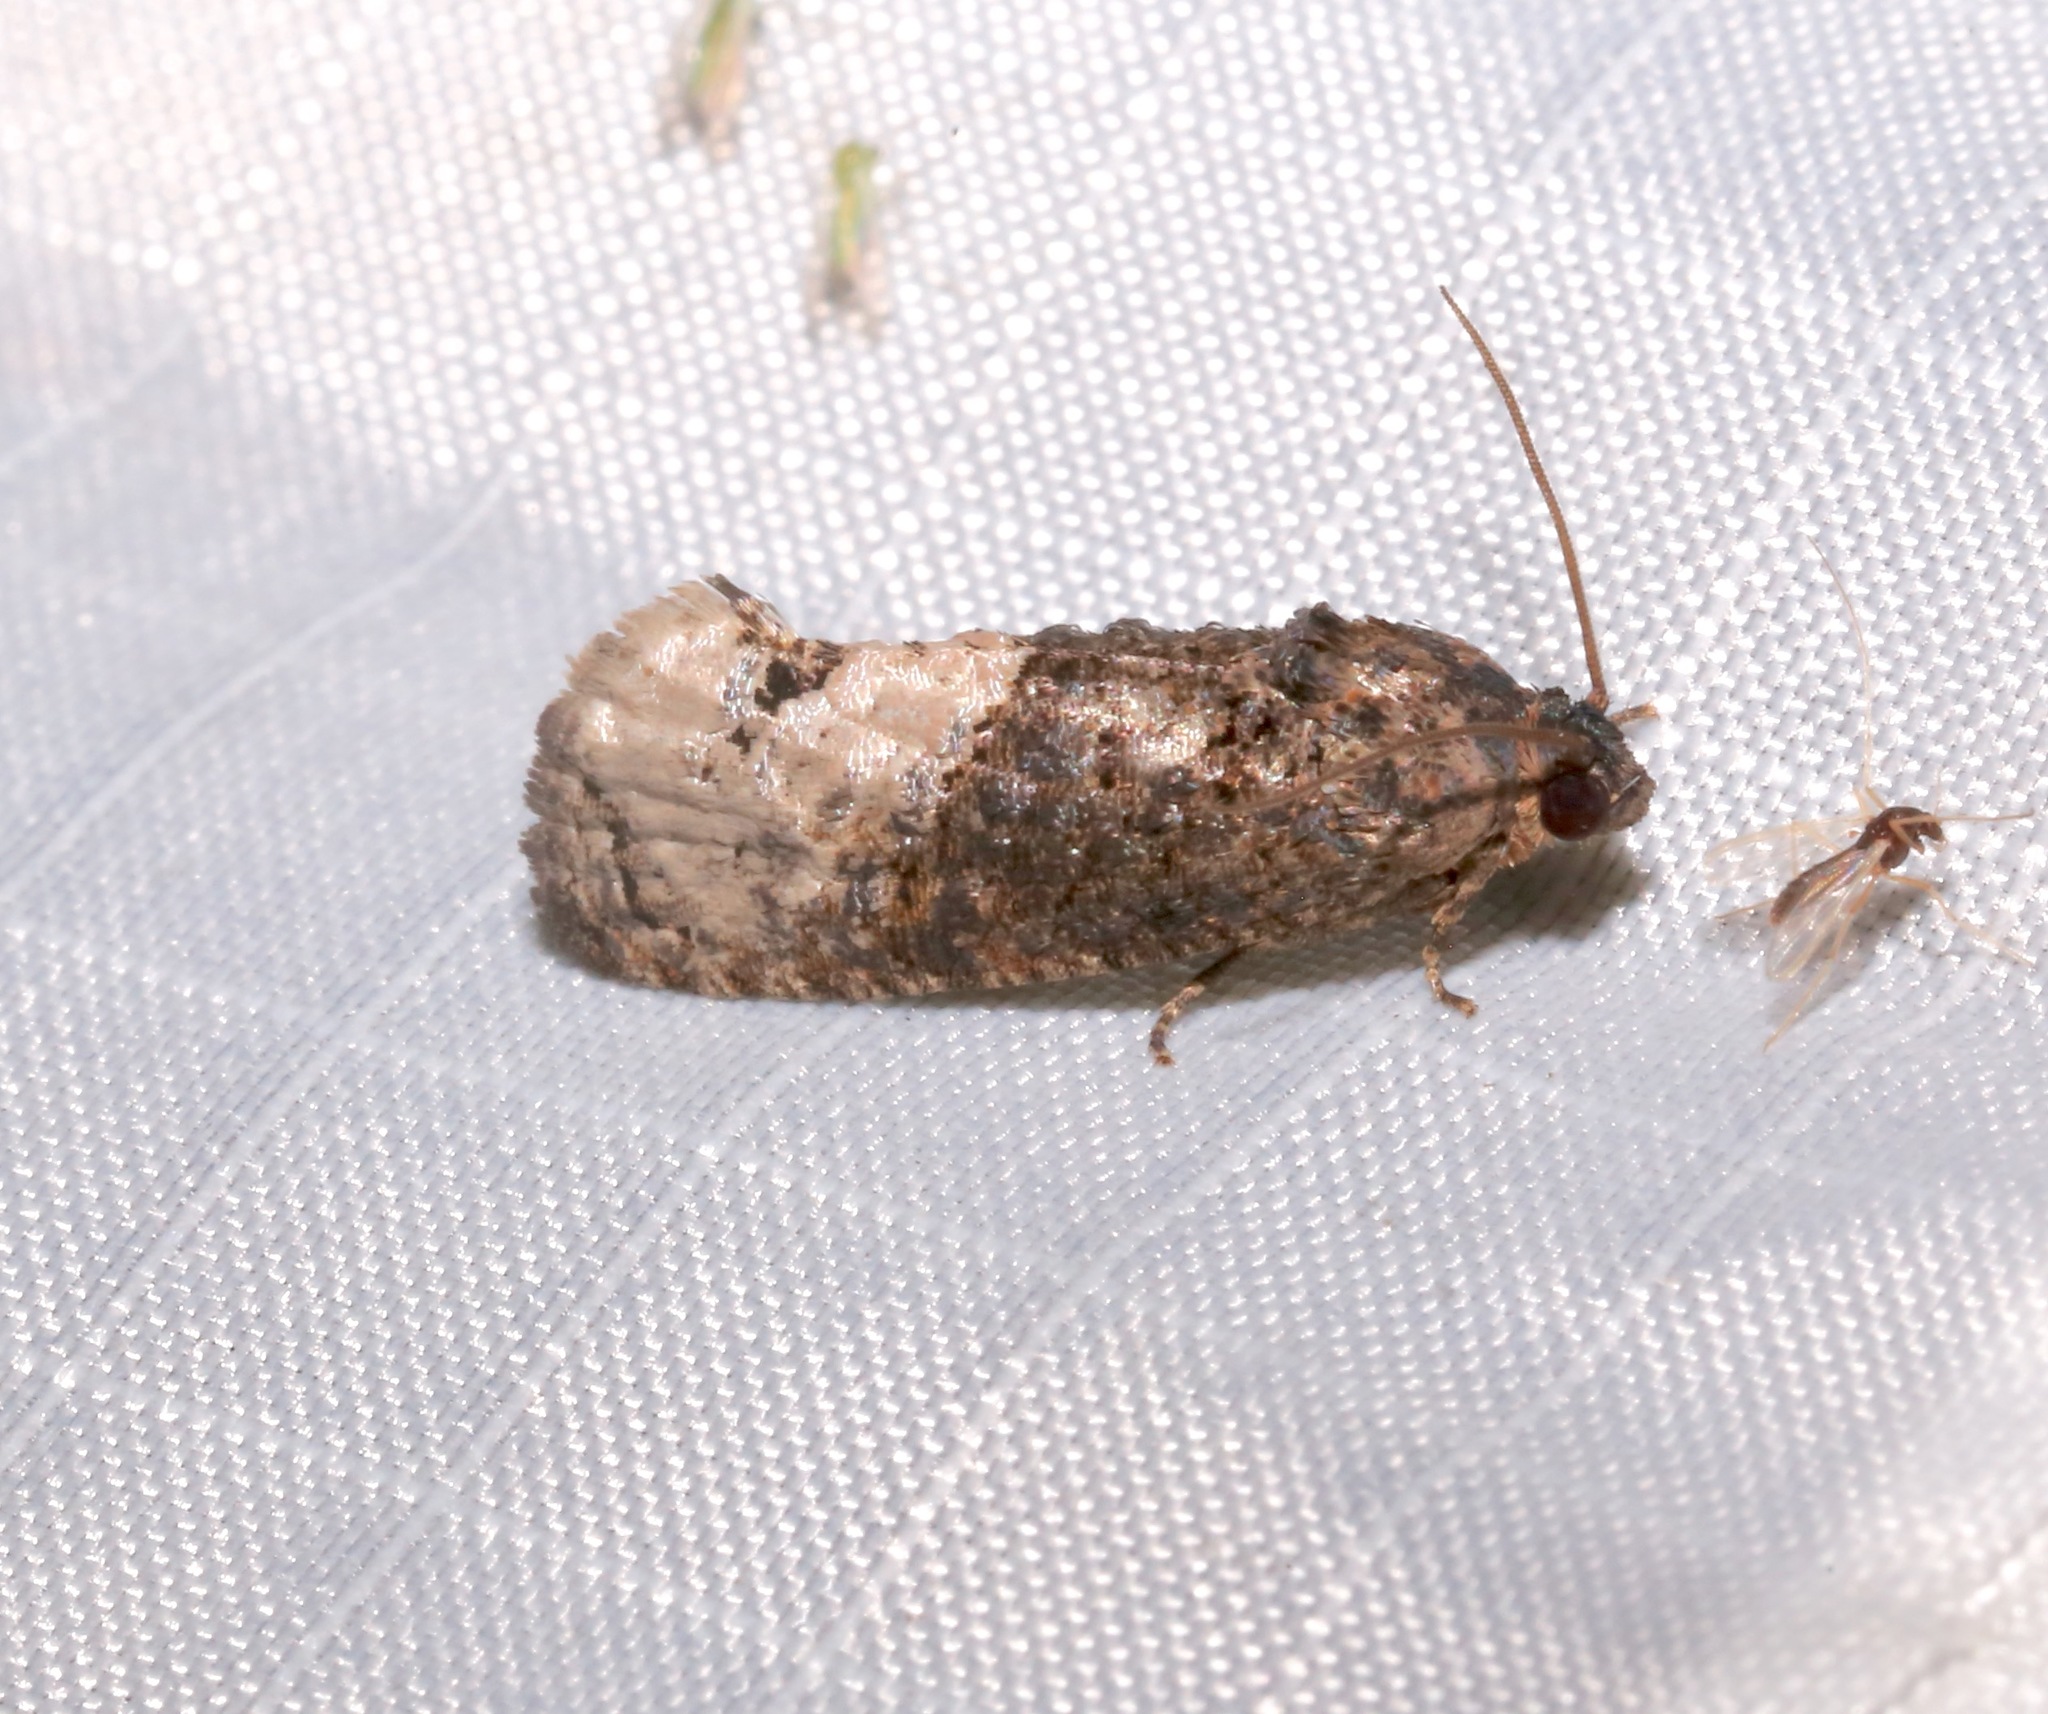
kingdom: Animalia
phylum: Arthropoda
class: Insecta
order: Lepidoptera
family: Tortricidae
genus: Ecdytolopha
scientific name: Ecdytolopha insiticiana
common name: Locust twig borer moth
